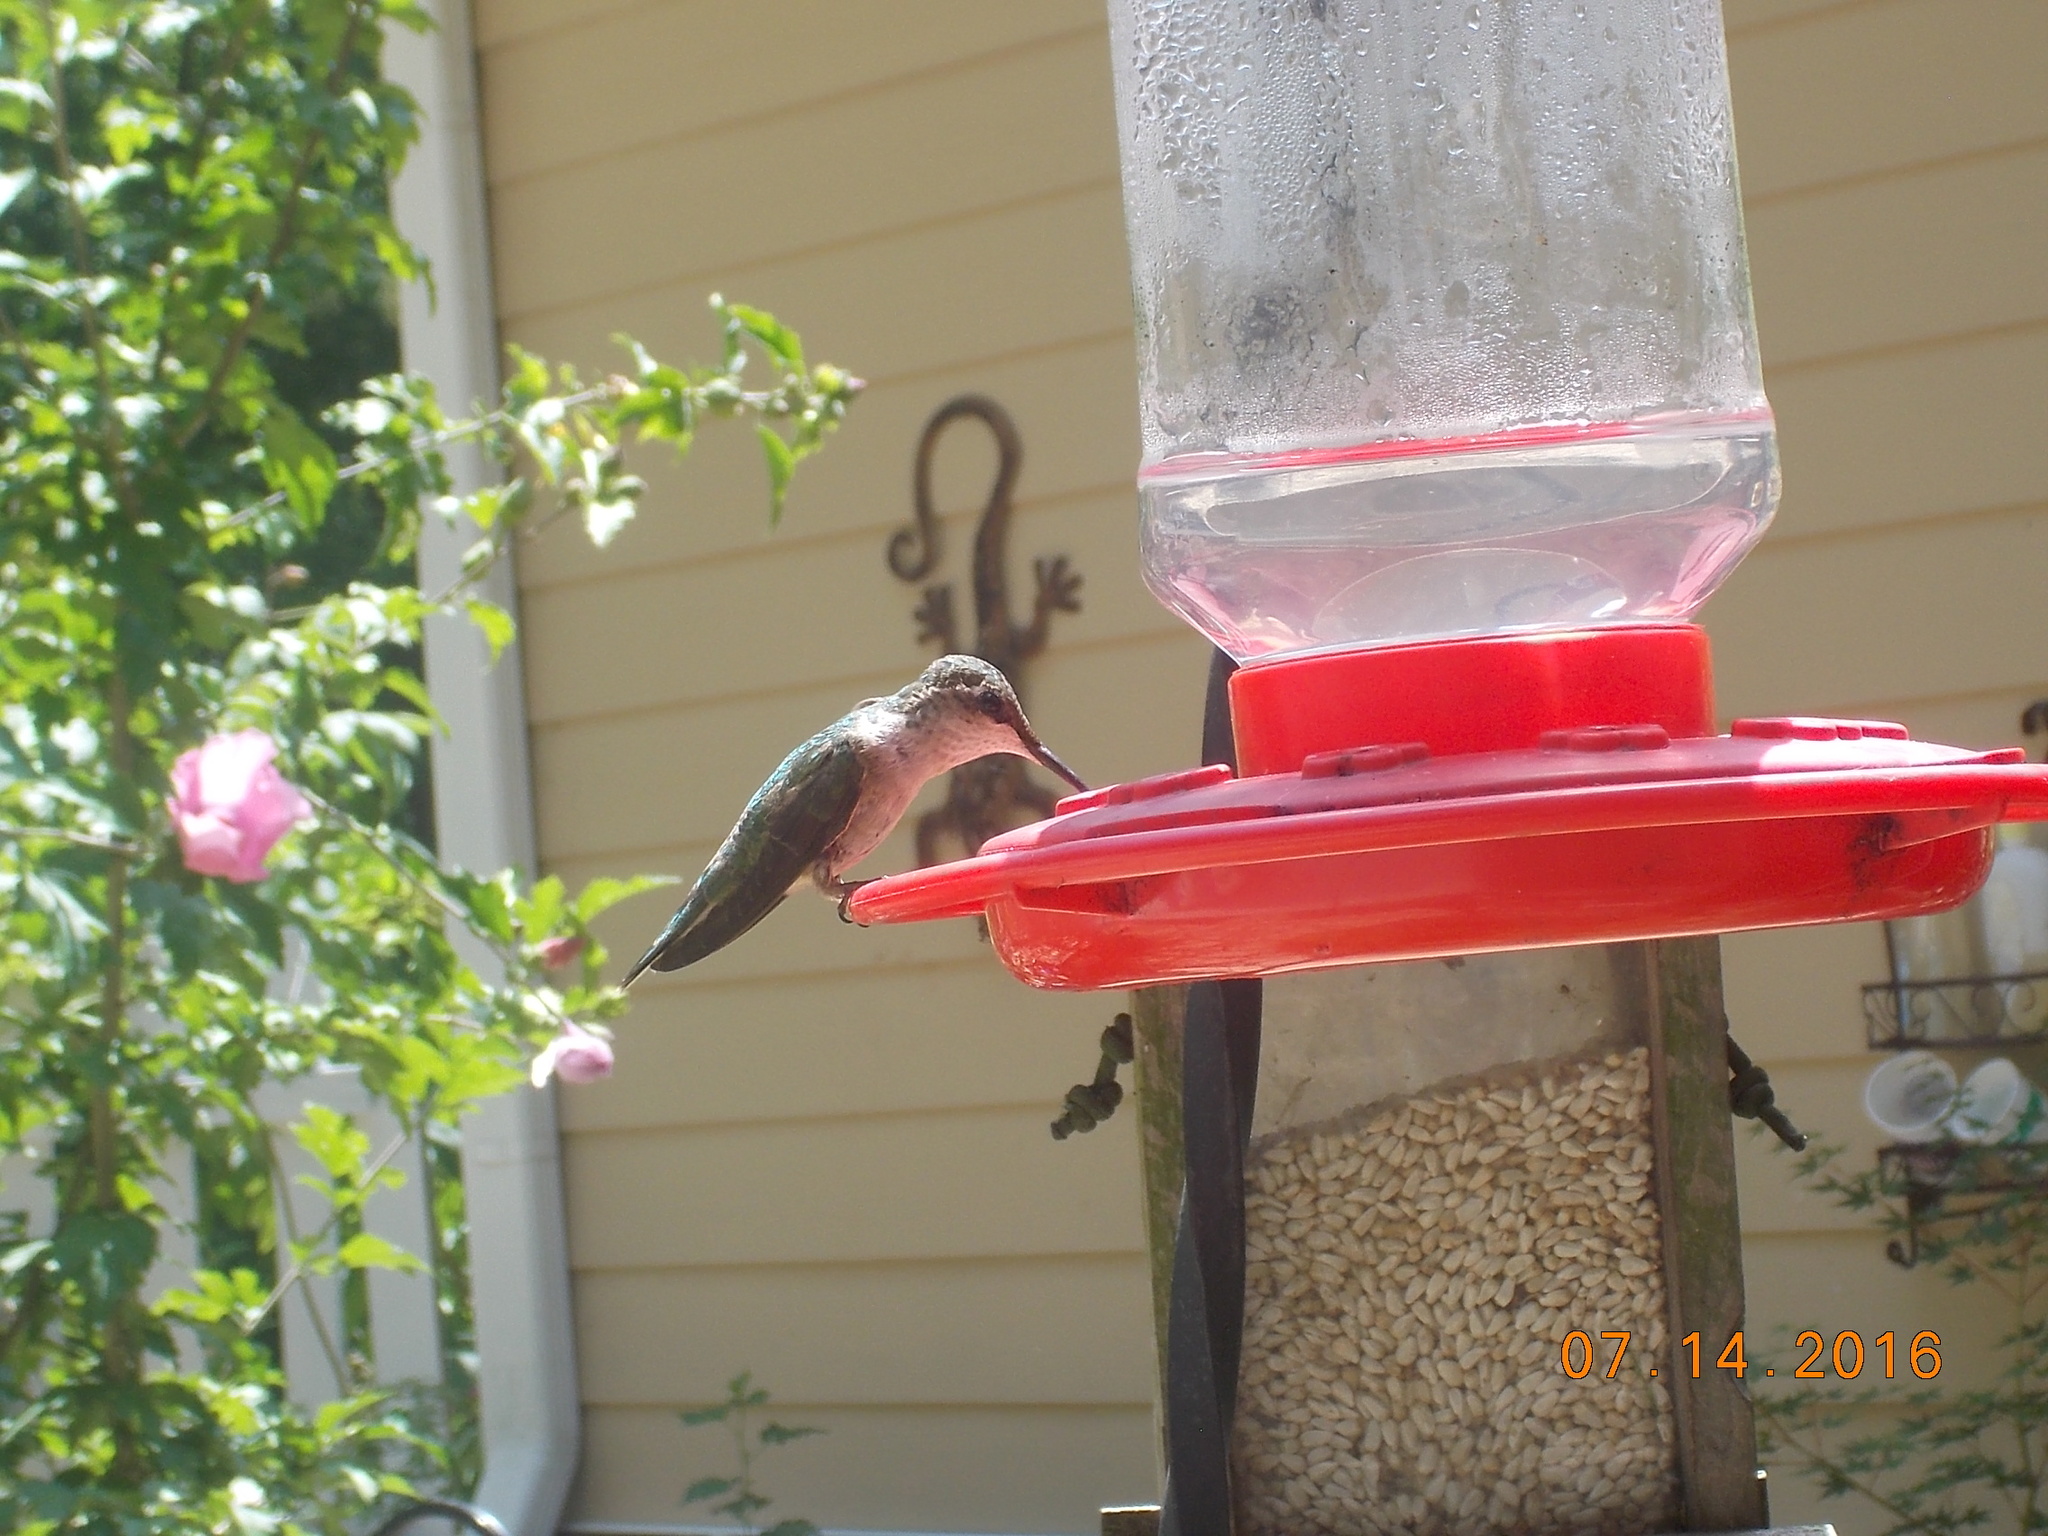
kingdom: Animalia
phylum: Chordata
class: Aves
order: Apodiformes
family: Trochilidae
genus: Archilochus
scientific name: Archilochus colubris
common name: Ruby-throated hummingbird
